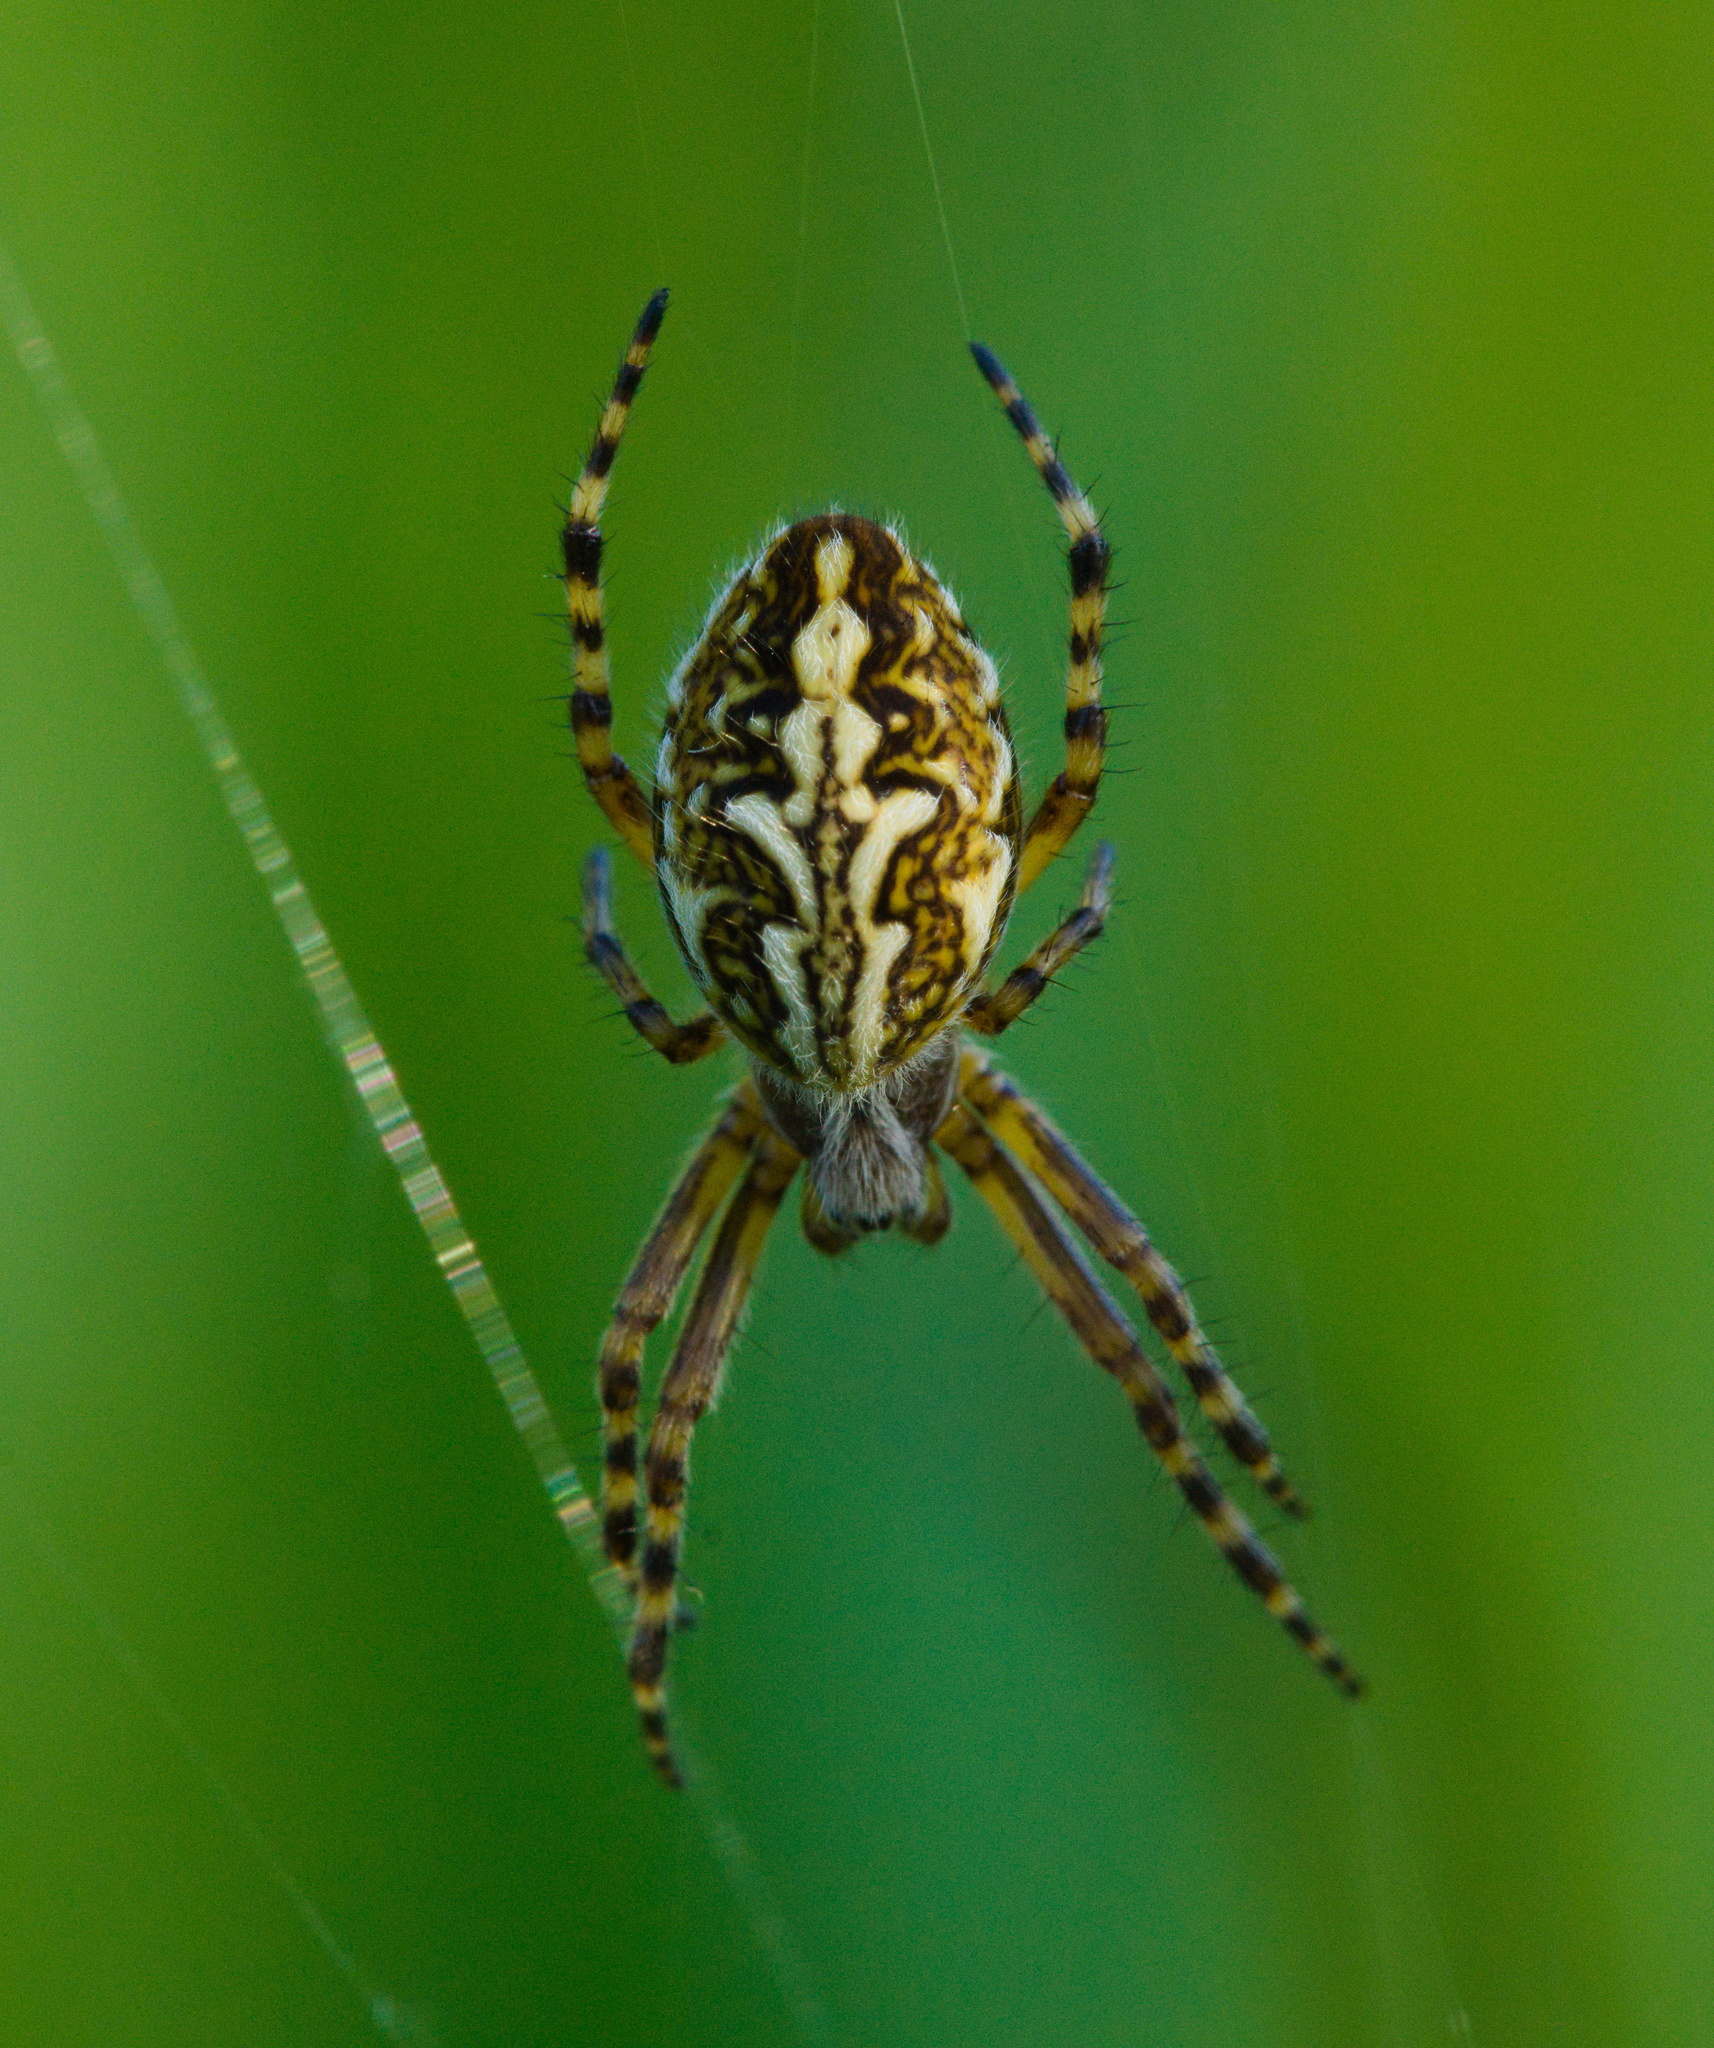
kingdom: Animalia
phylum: Arthropoda
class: Arachnida
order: Araneae
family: Araneidae
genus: Aculepeira
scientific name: Aculepeira ceropegia
